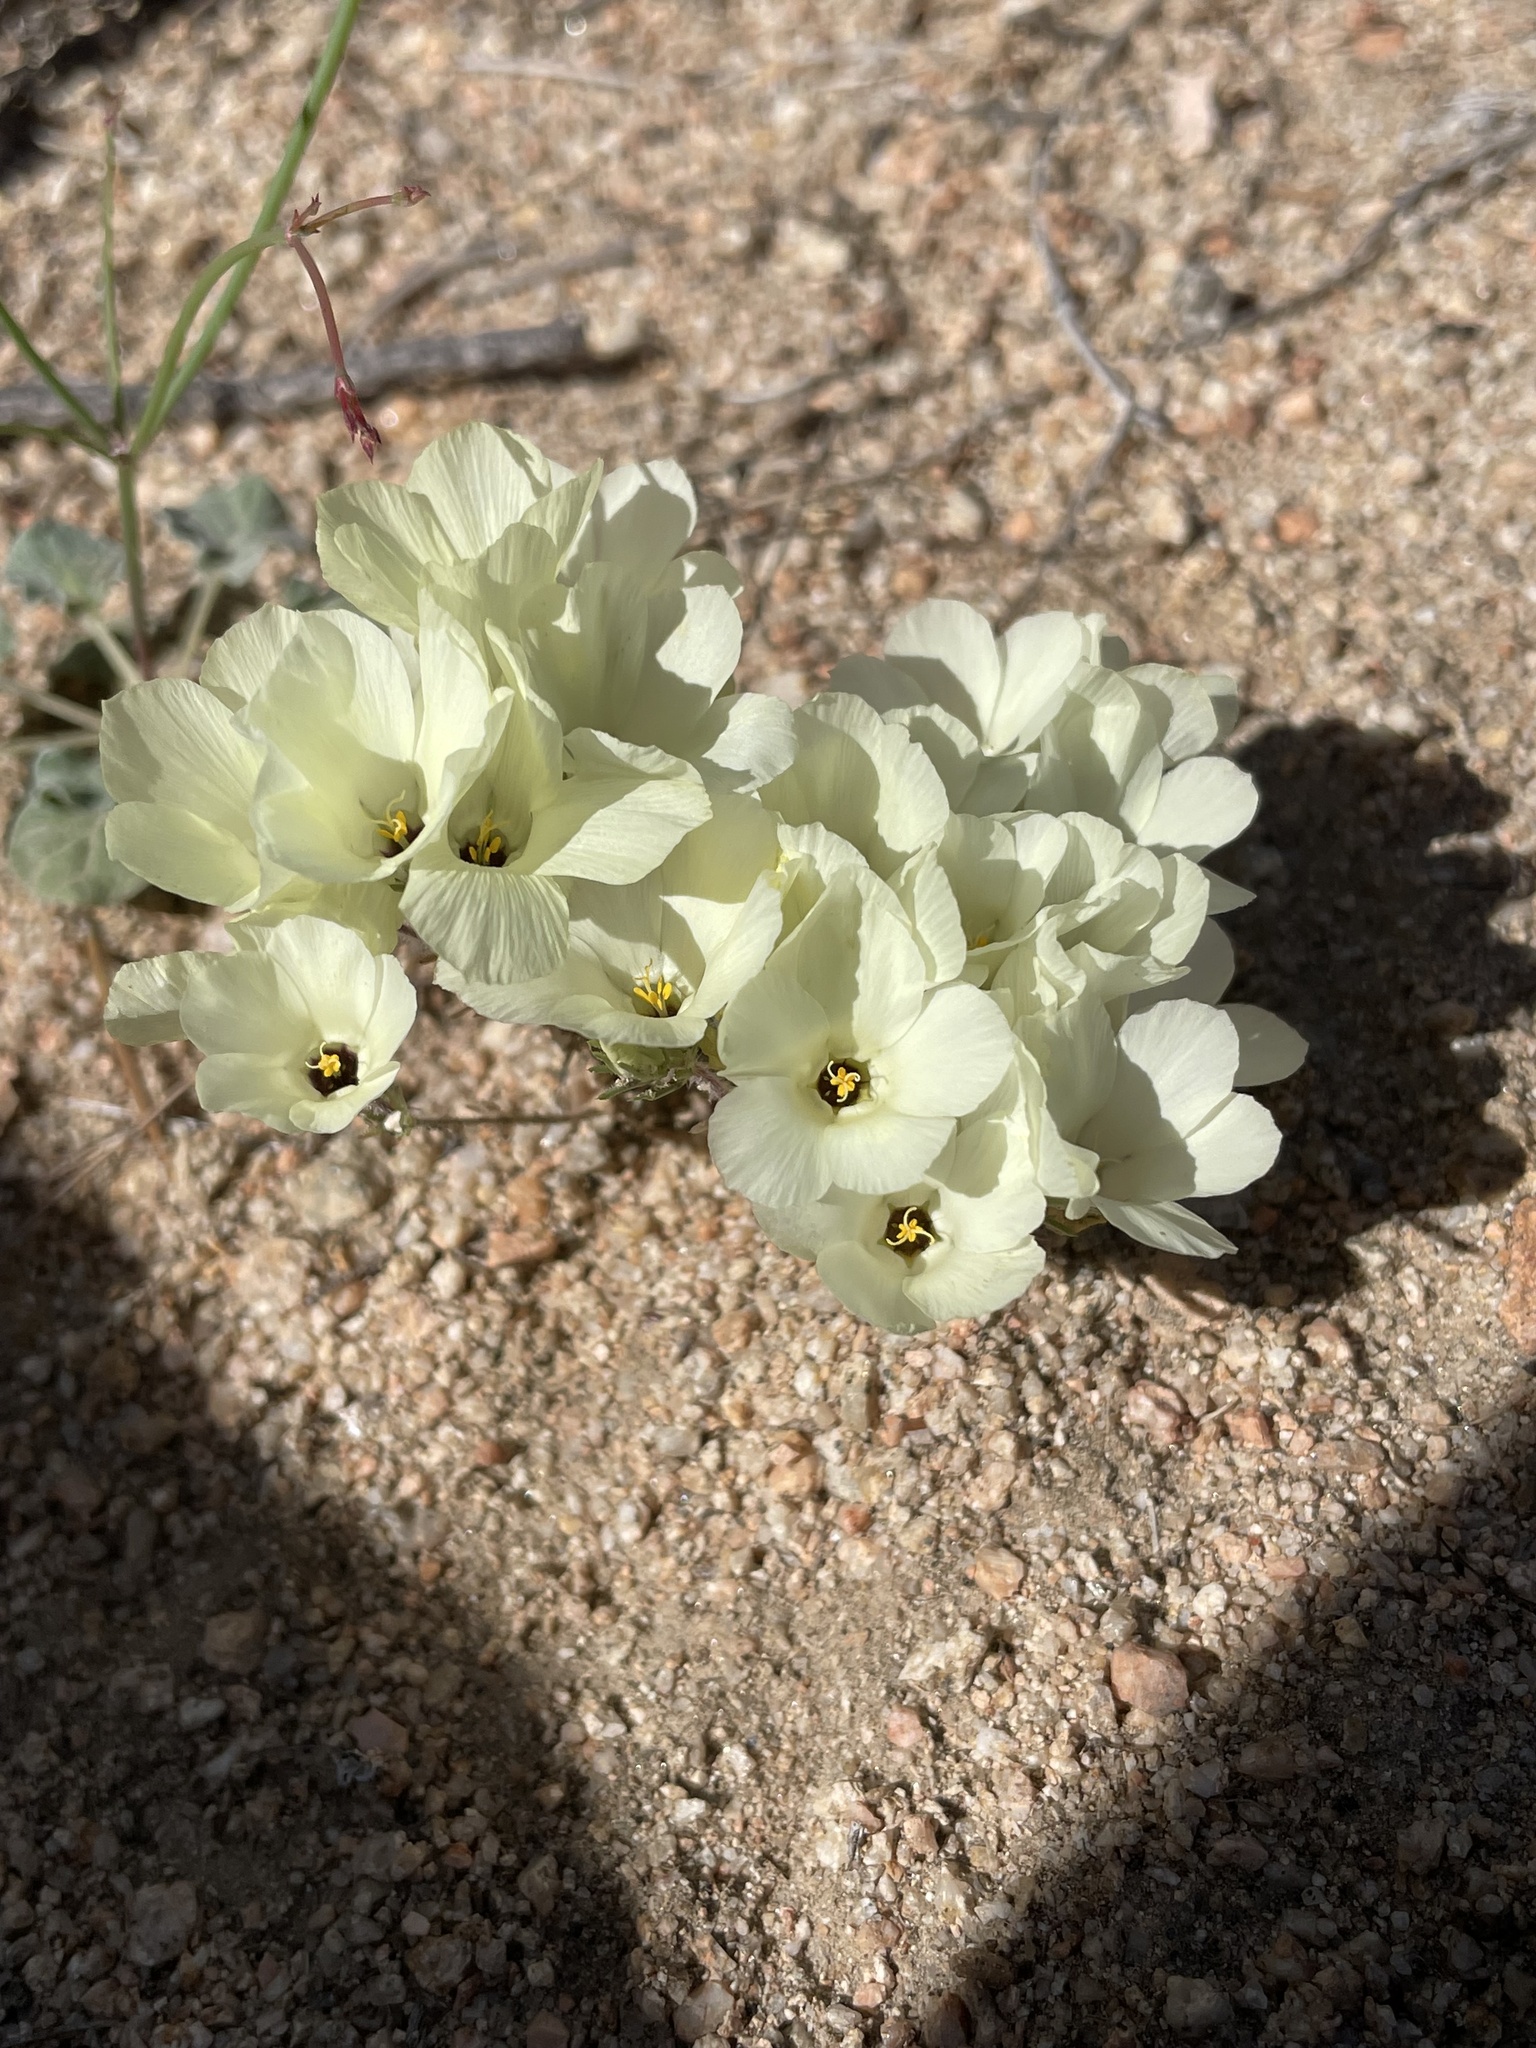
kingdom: Plantae
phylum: Tracheophyta
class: Magnoliopsida
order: Ericales
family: Polemoniaceae
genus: Linanthus
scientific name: Linanthus parryae
